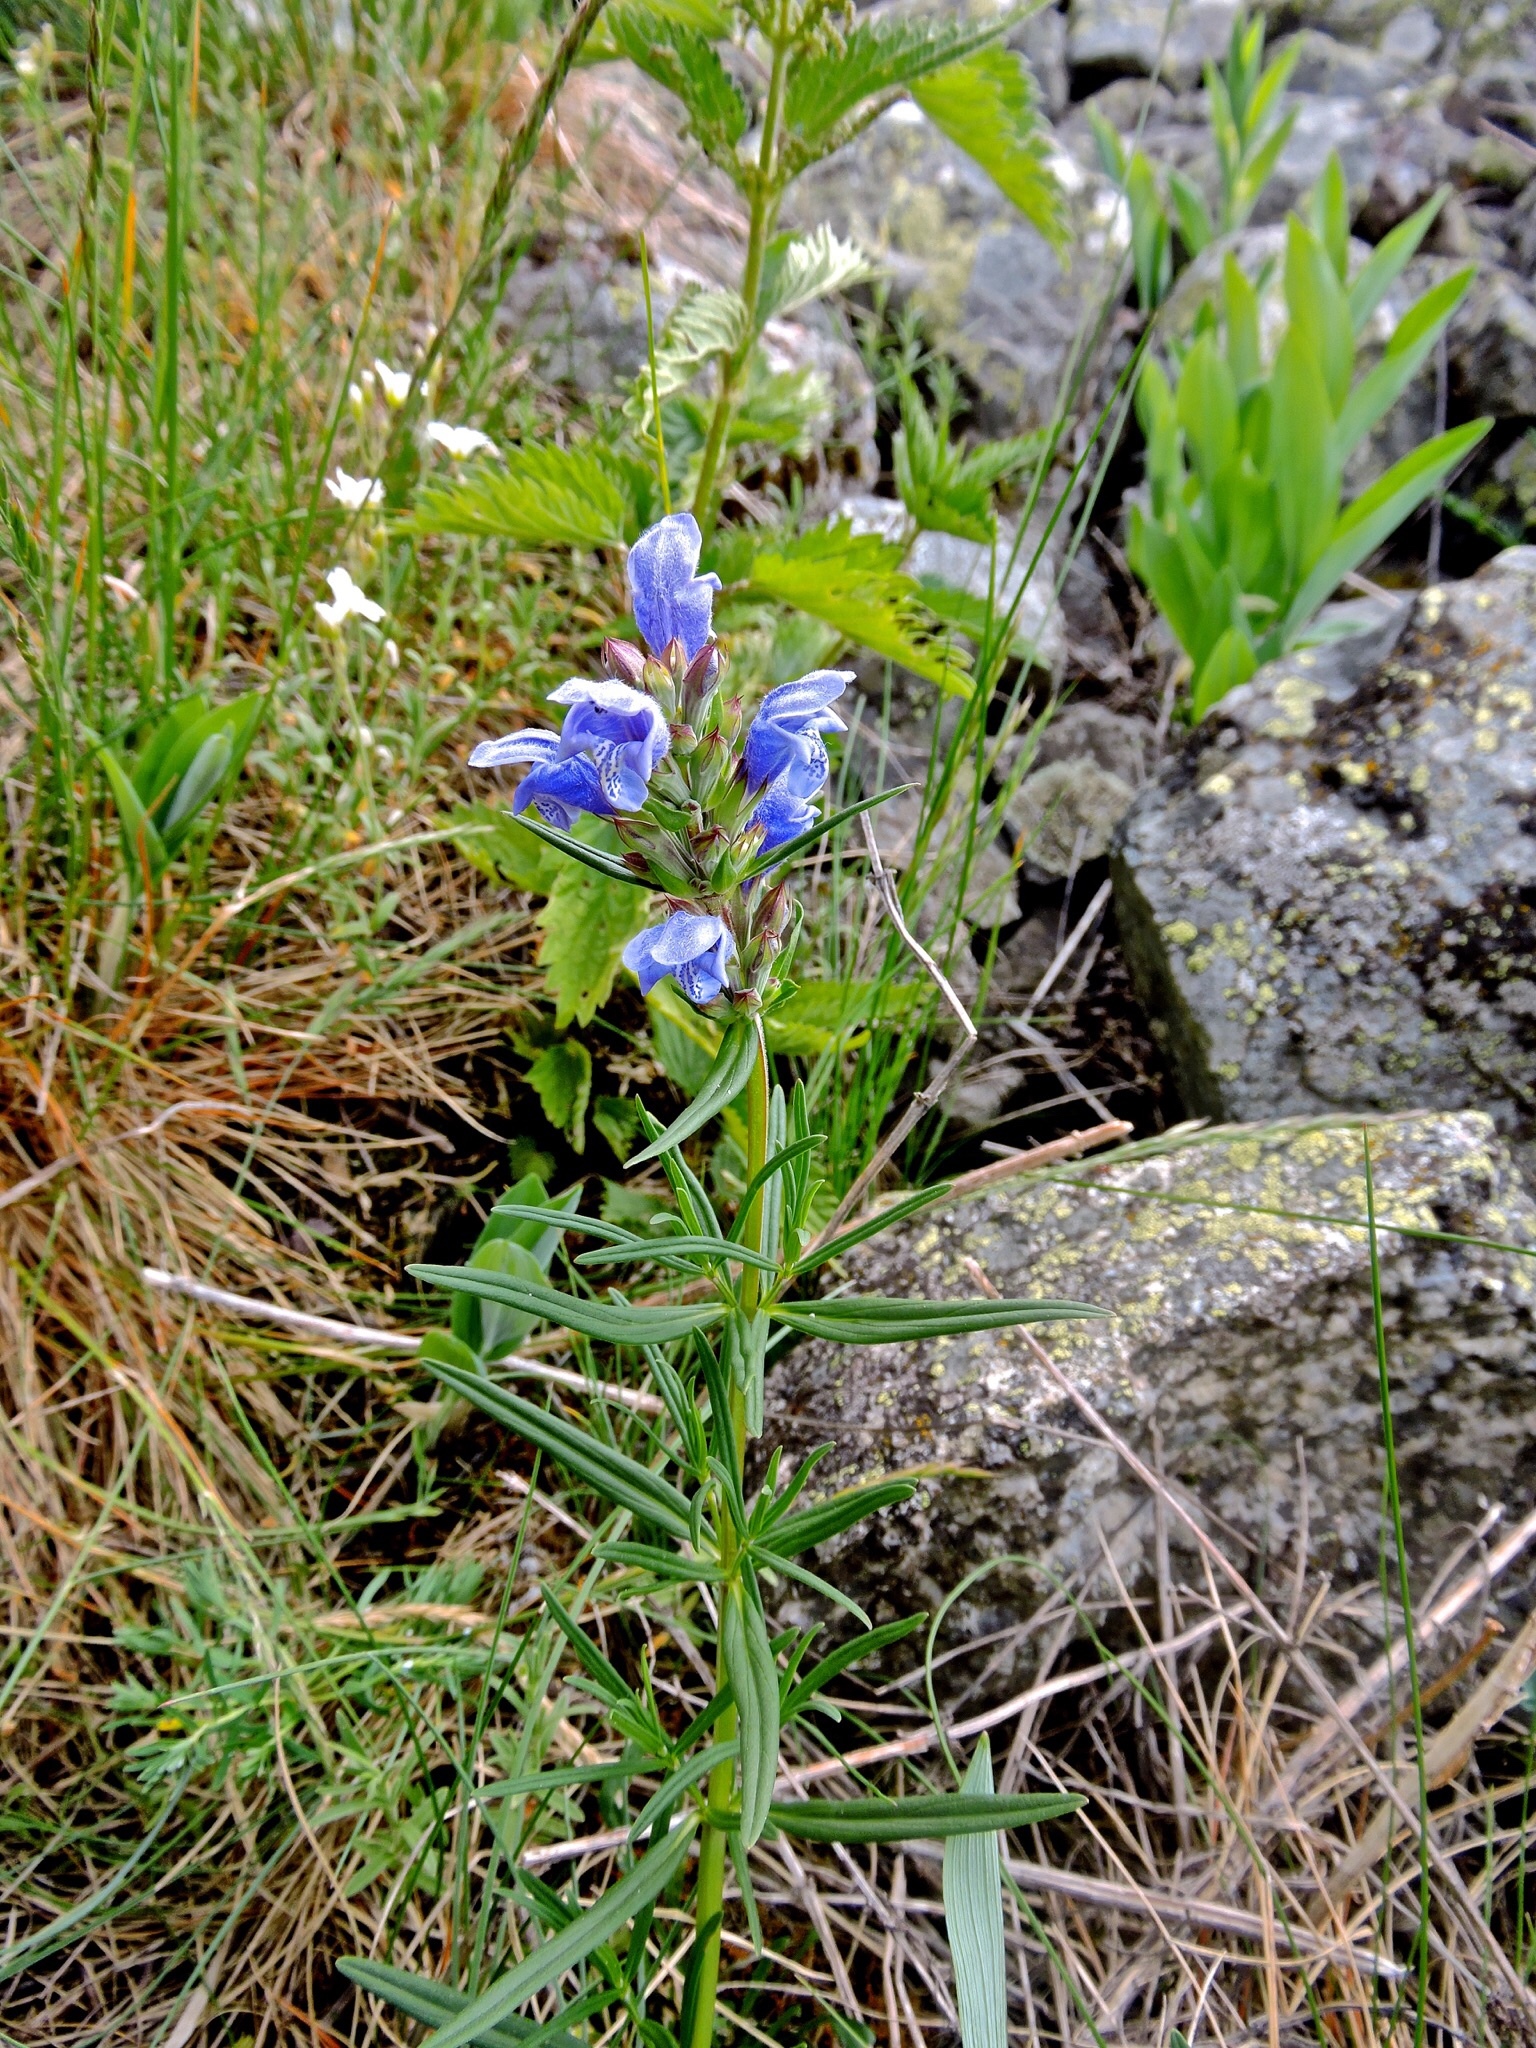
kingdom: Plantae
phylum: Tracheophyta
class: Magnoliopsida
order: Lamiales
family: Lamiaceae
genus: Dracocephalum
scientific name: Dracocephalum ruyschiana
